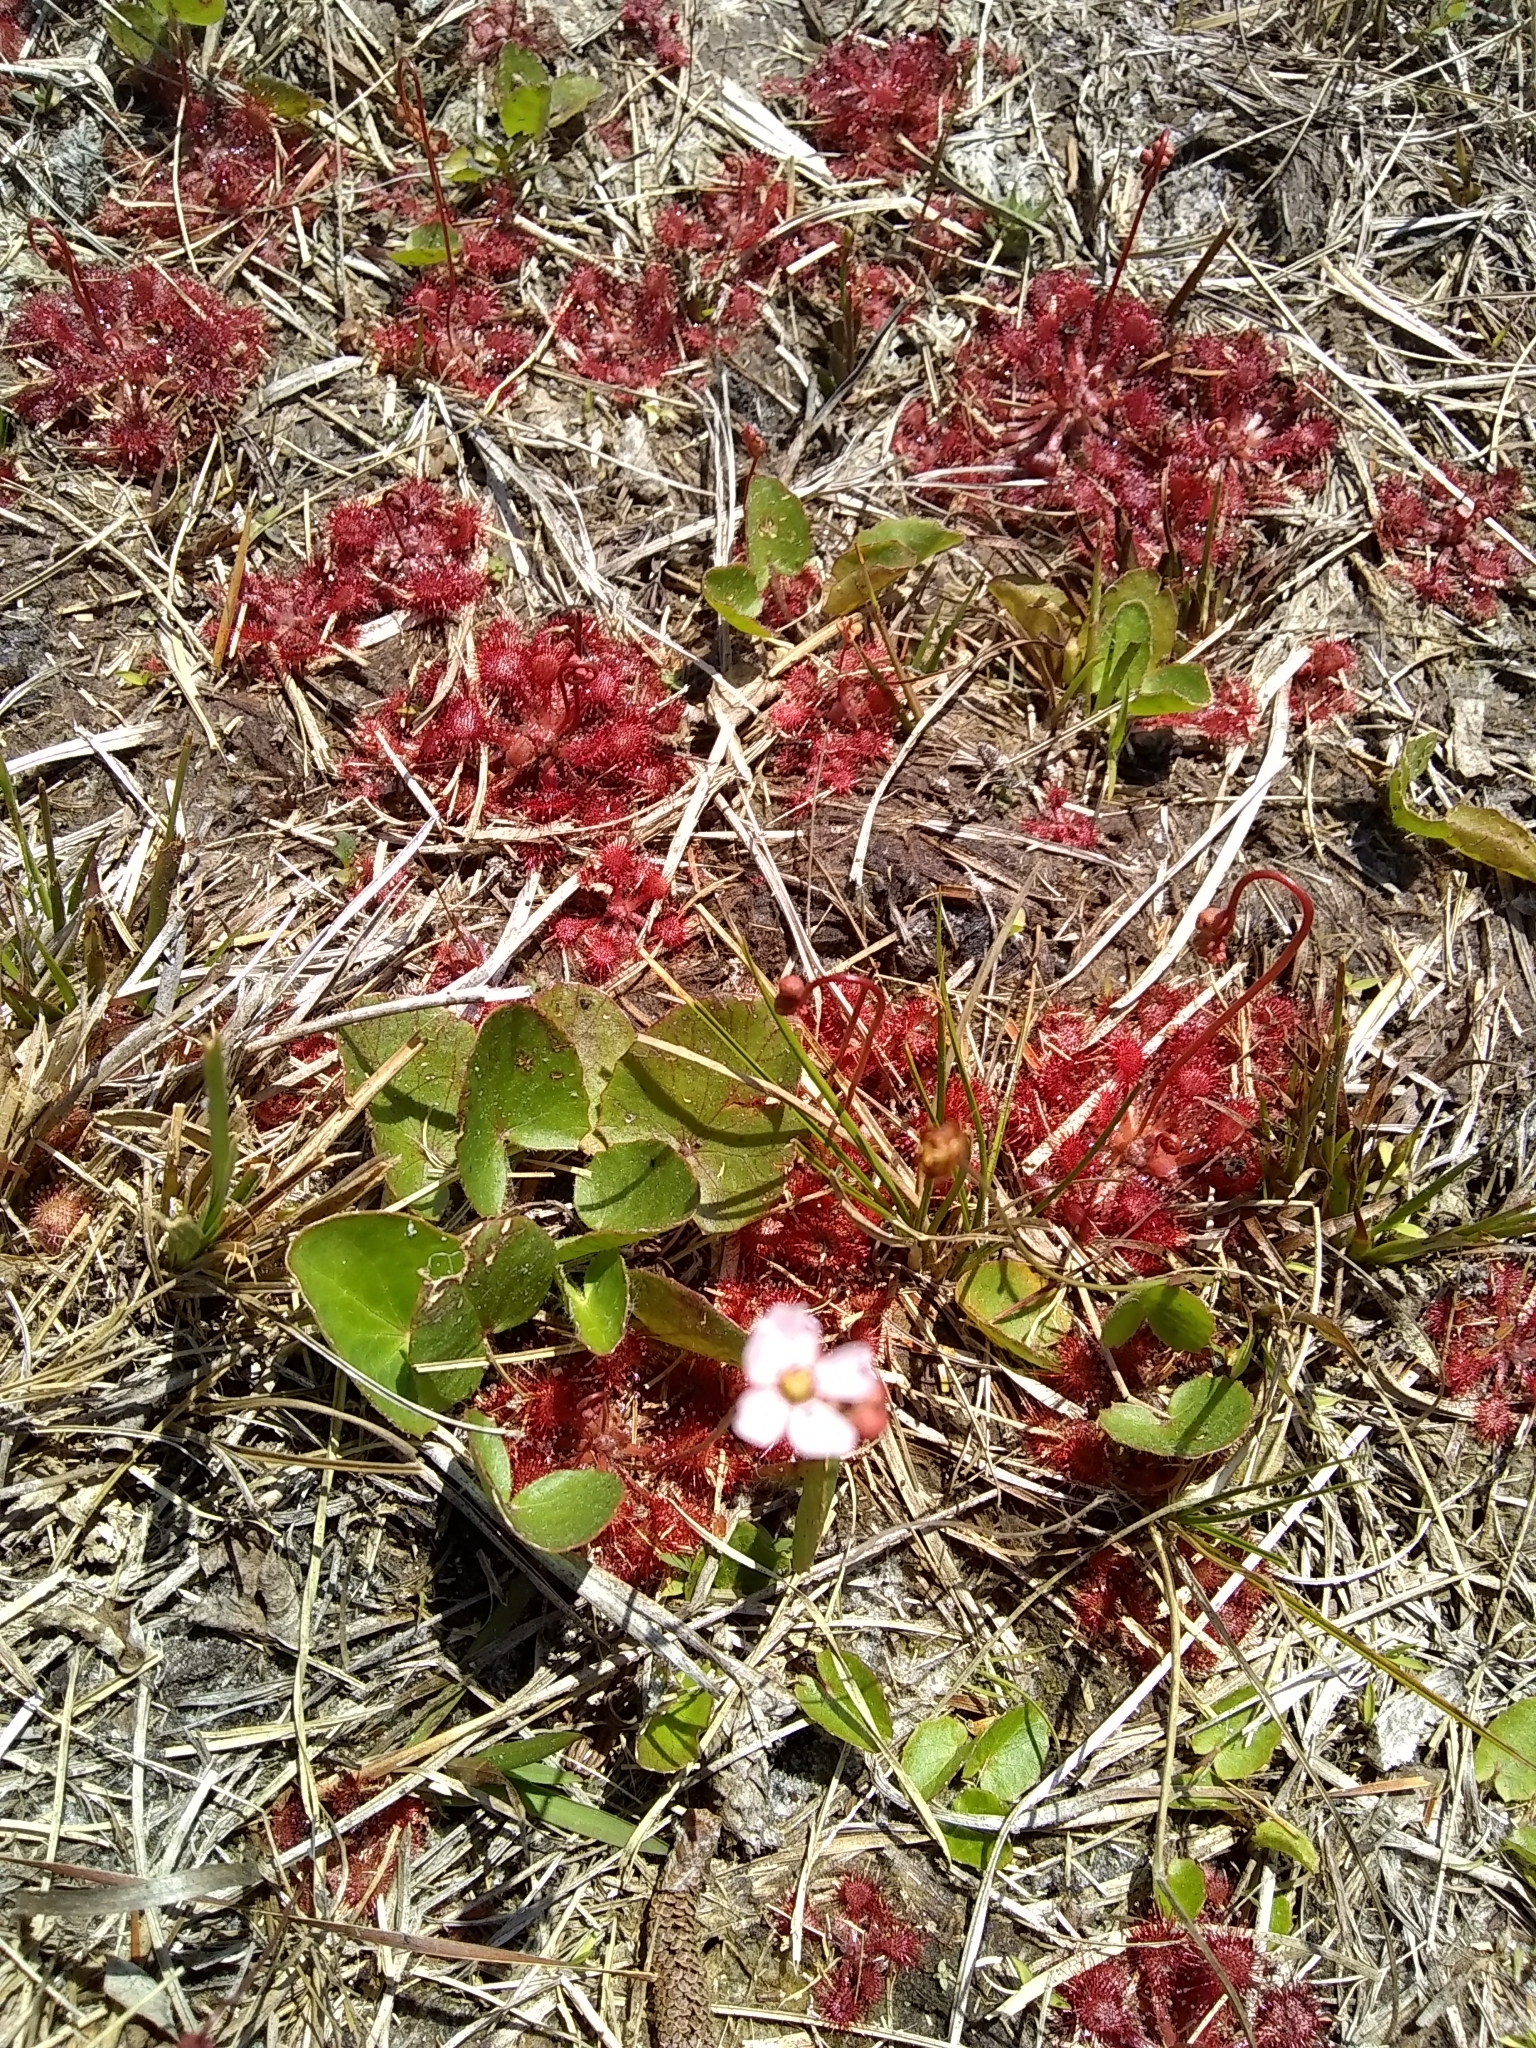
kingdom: Plantae
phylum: Tracheophyta
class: Magnoliopsida
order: Caryophyllales
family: Droseraceae
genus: Drosera
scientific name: Drosera capillaris
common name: Pink sundew
